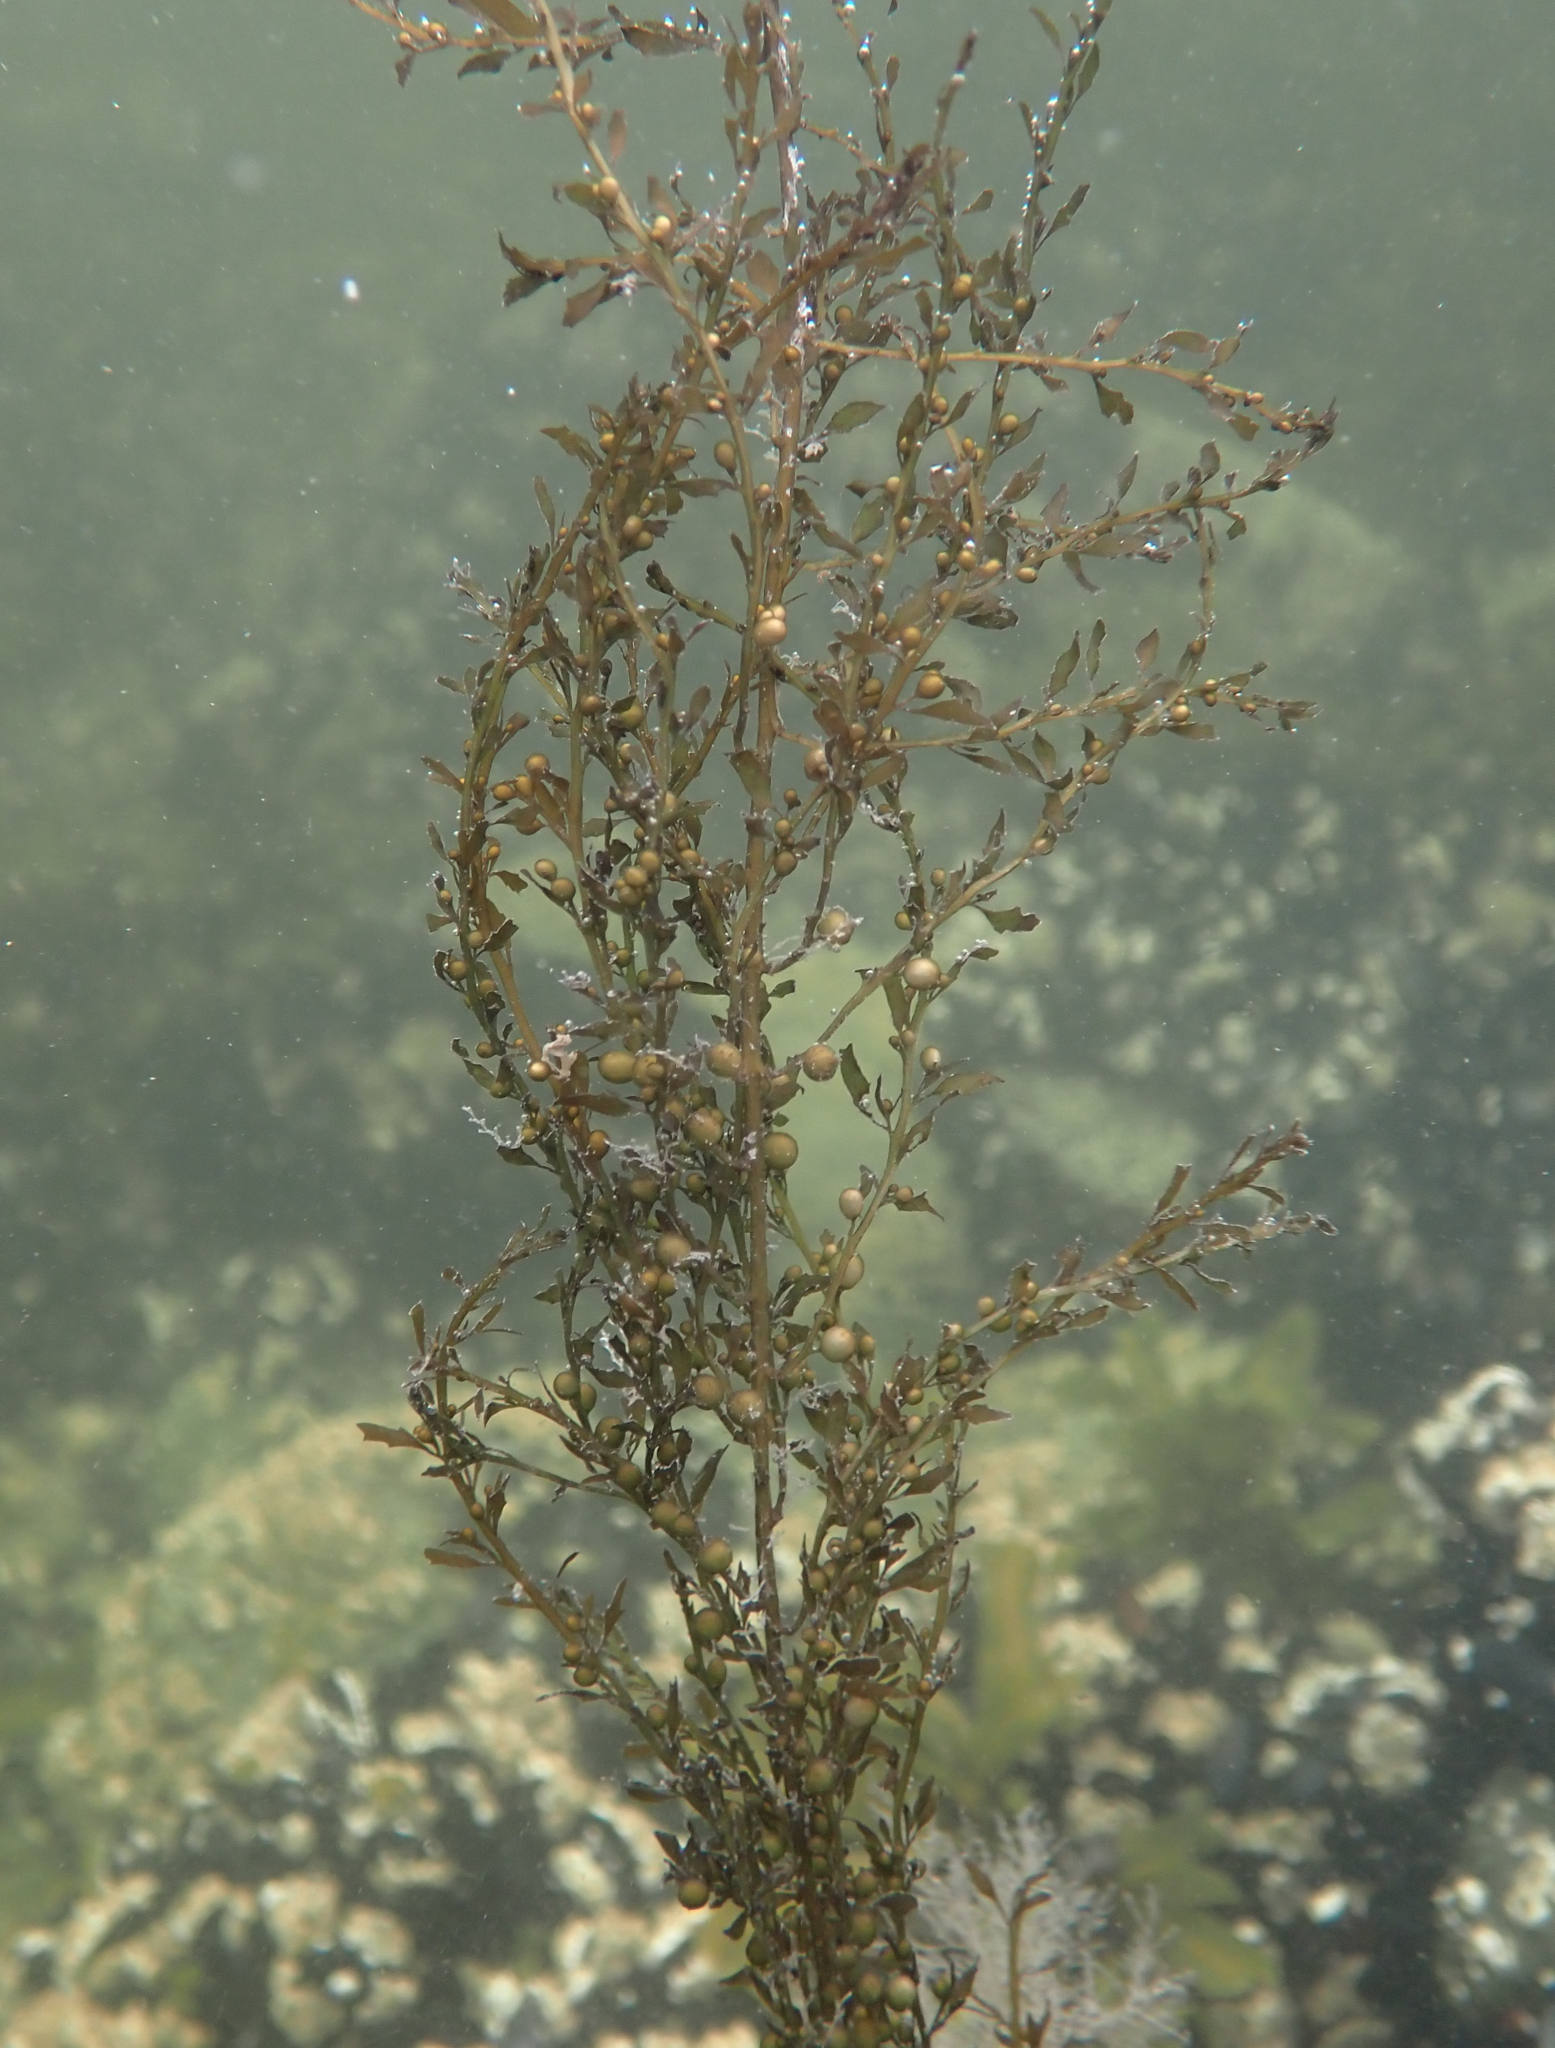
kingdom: Chromista
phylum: Ochrophyta
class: Phaeophyceae
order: Fucales
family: Sargassaceae
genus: Sargassum
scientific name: Sargassum muticum
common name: Japweed
